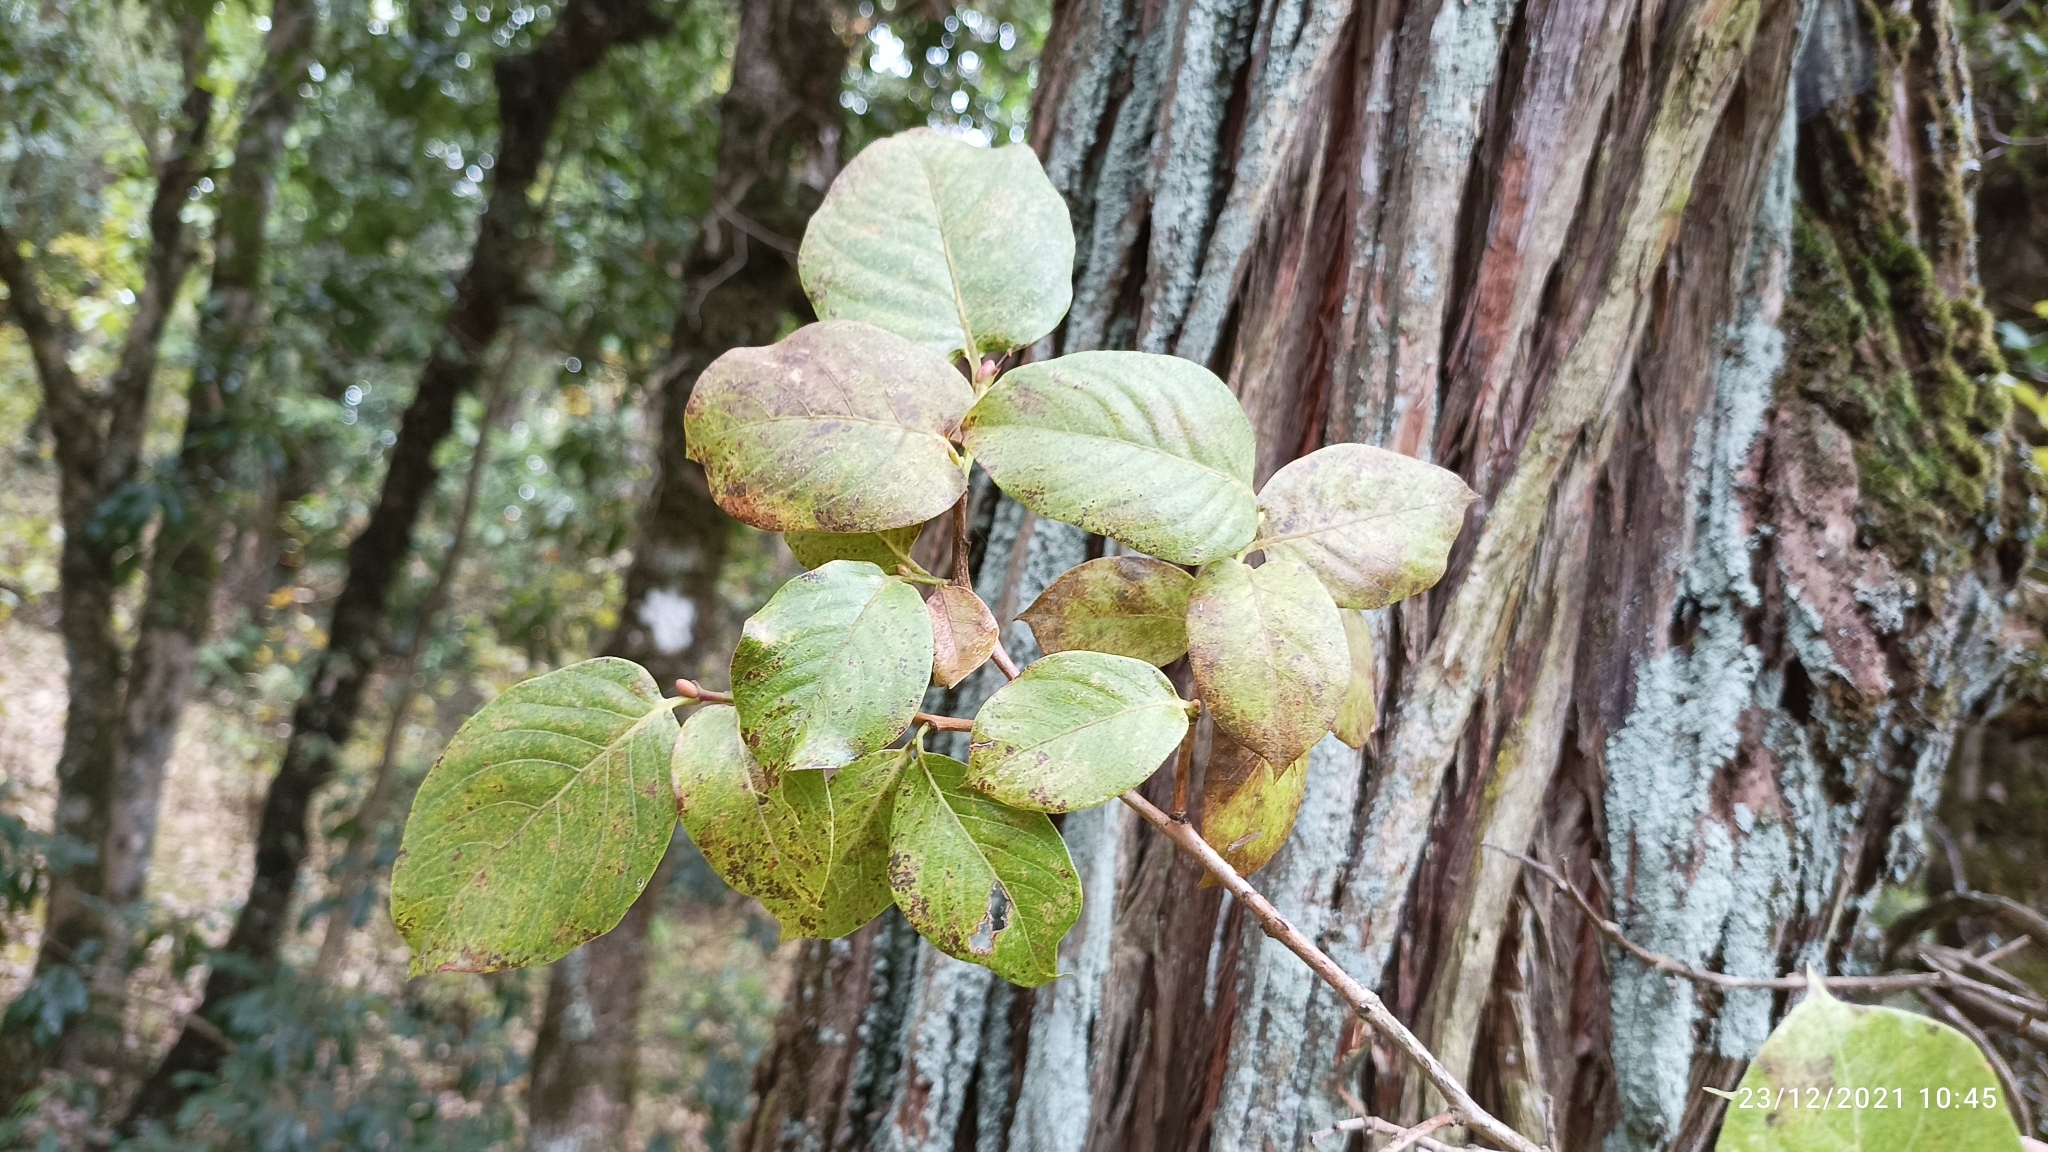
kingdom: Plantae
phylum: Tracheophyta
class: Magnoliopsida
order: Ericales
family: Ericaceae
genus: Lyonia
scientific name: Lyonia ovalifolia
